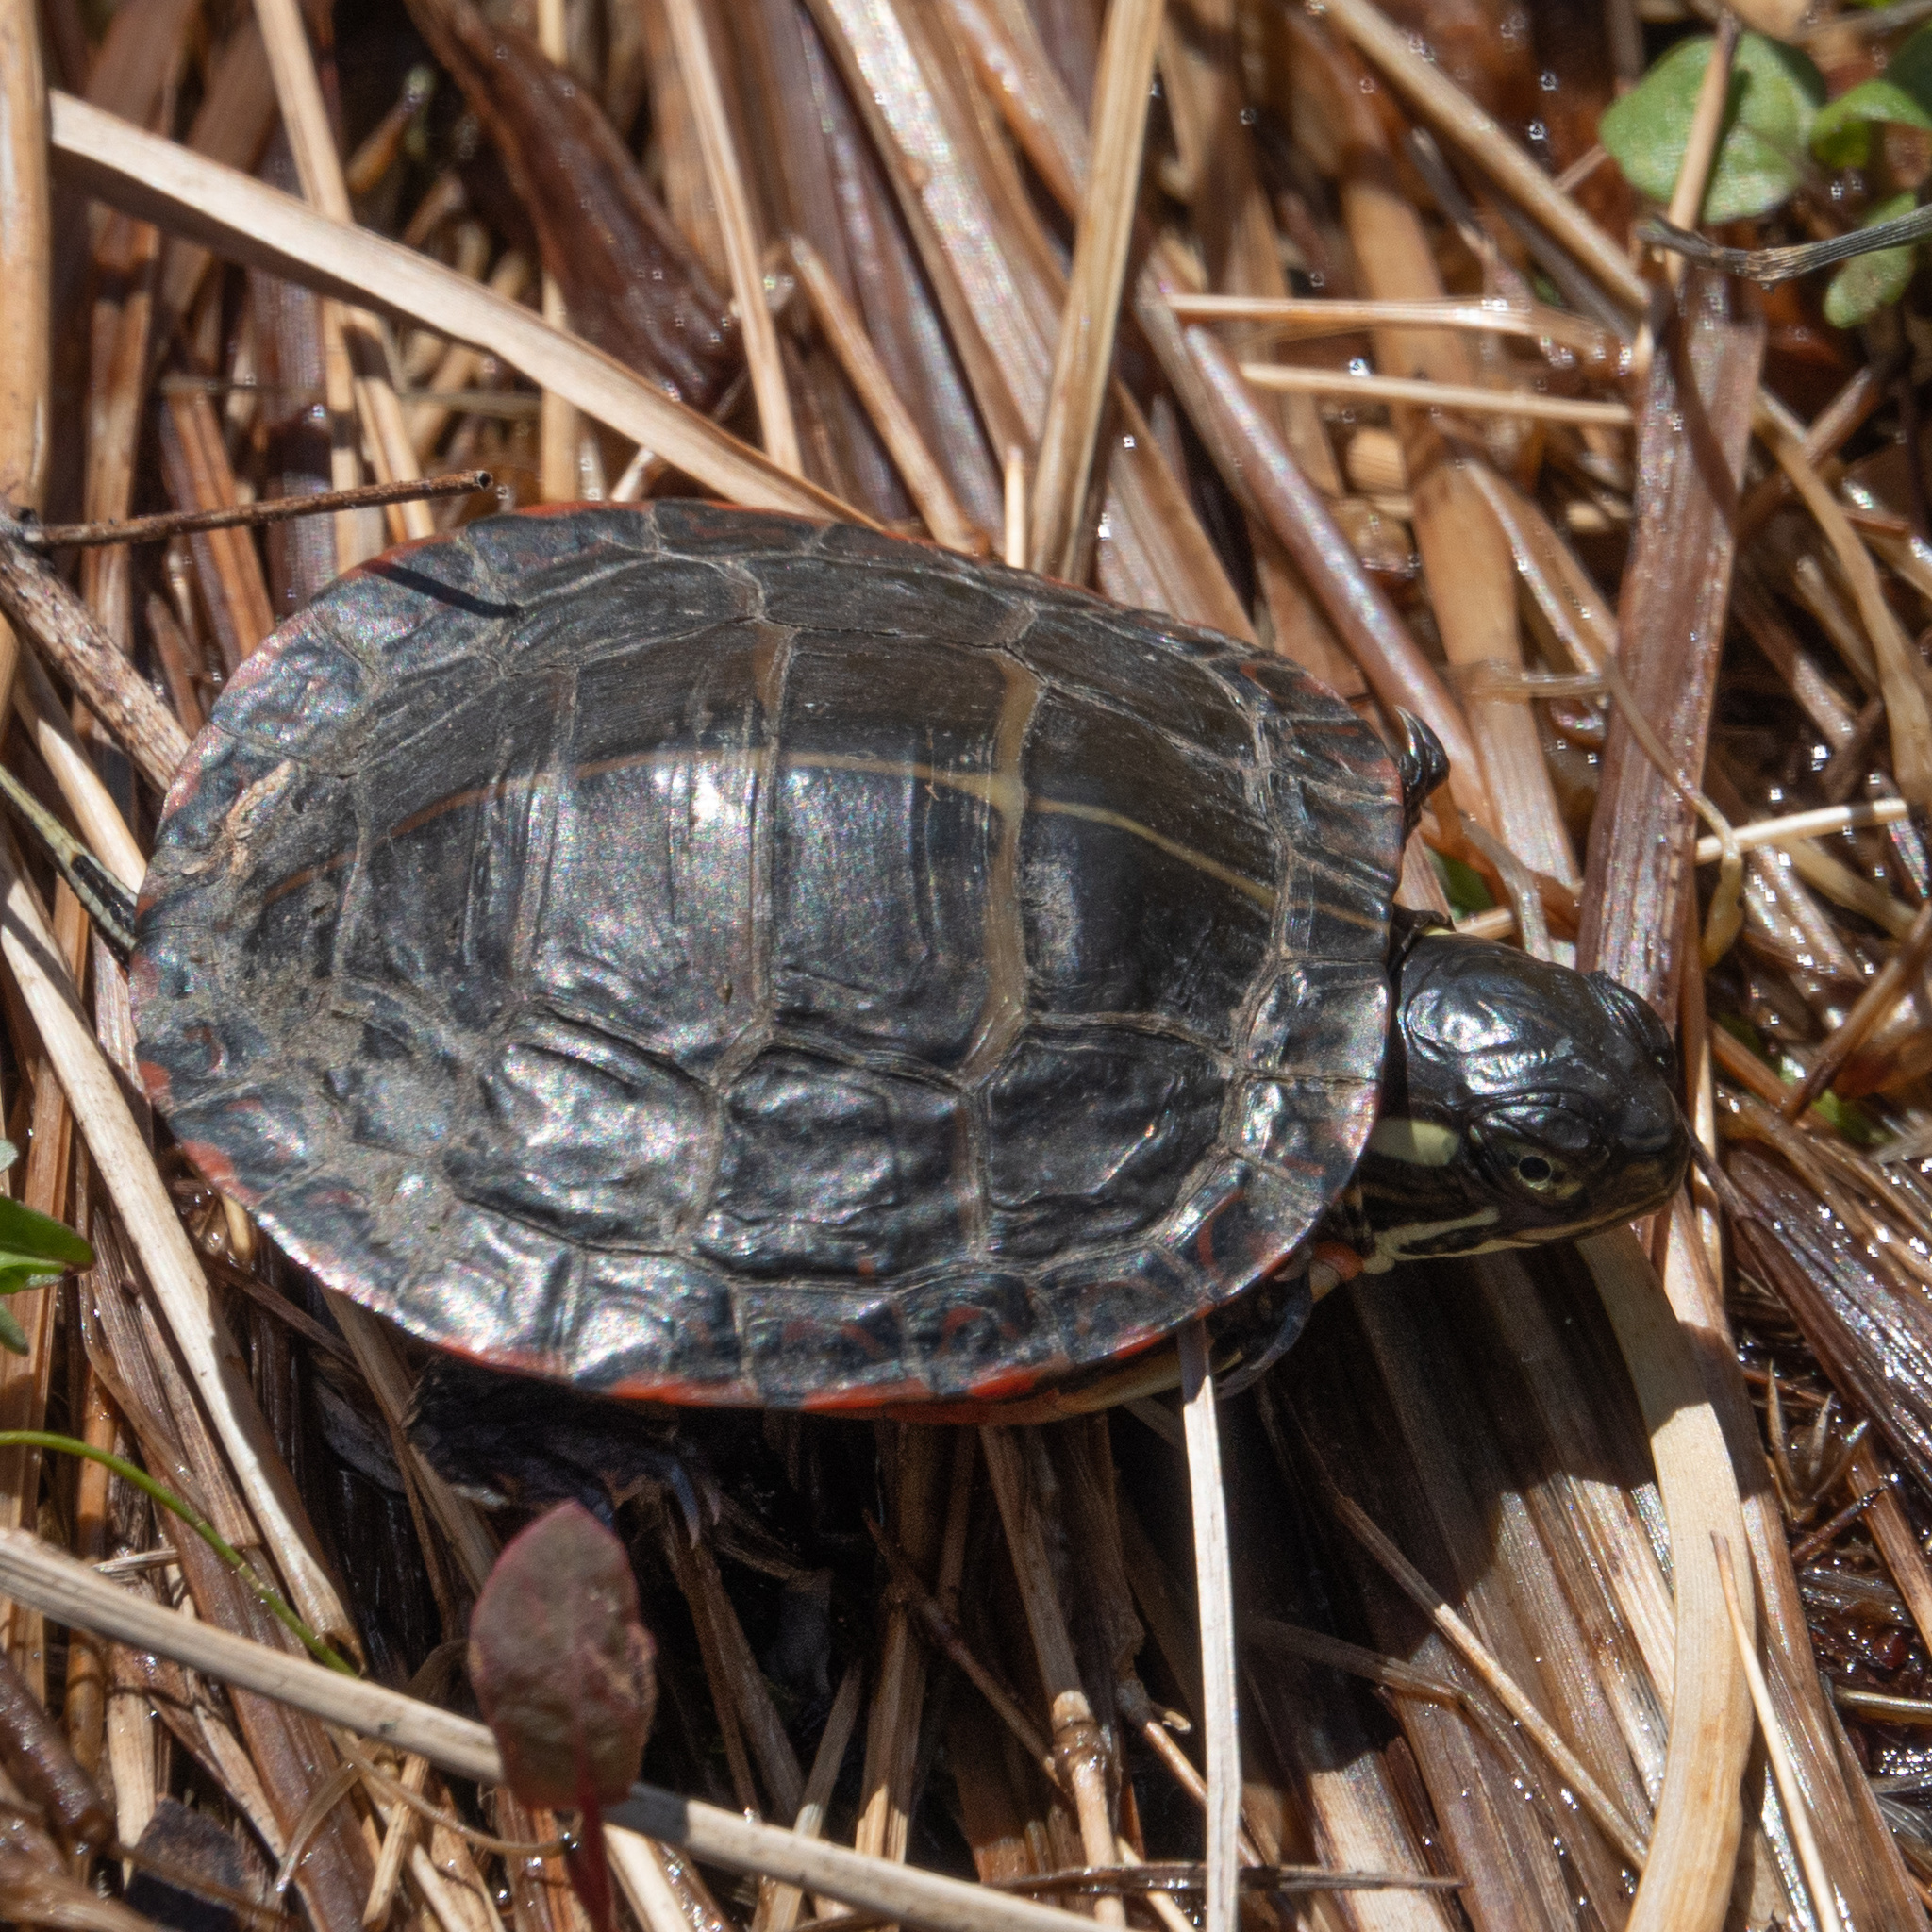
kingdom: Animalia
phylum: Chordata
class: Testudines
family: Emydidae
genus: Chrysemys
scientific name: Chrysemys picta
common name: Painted turtle
